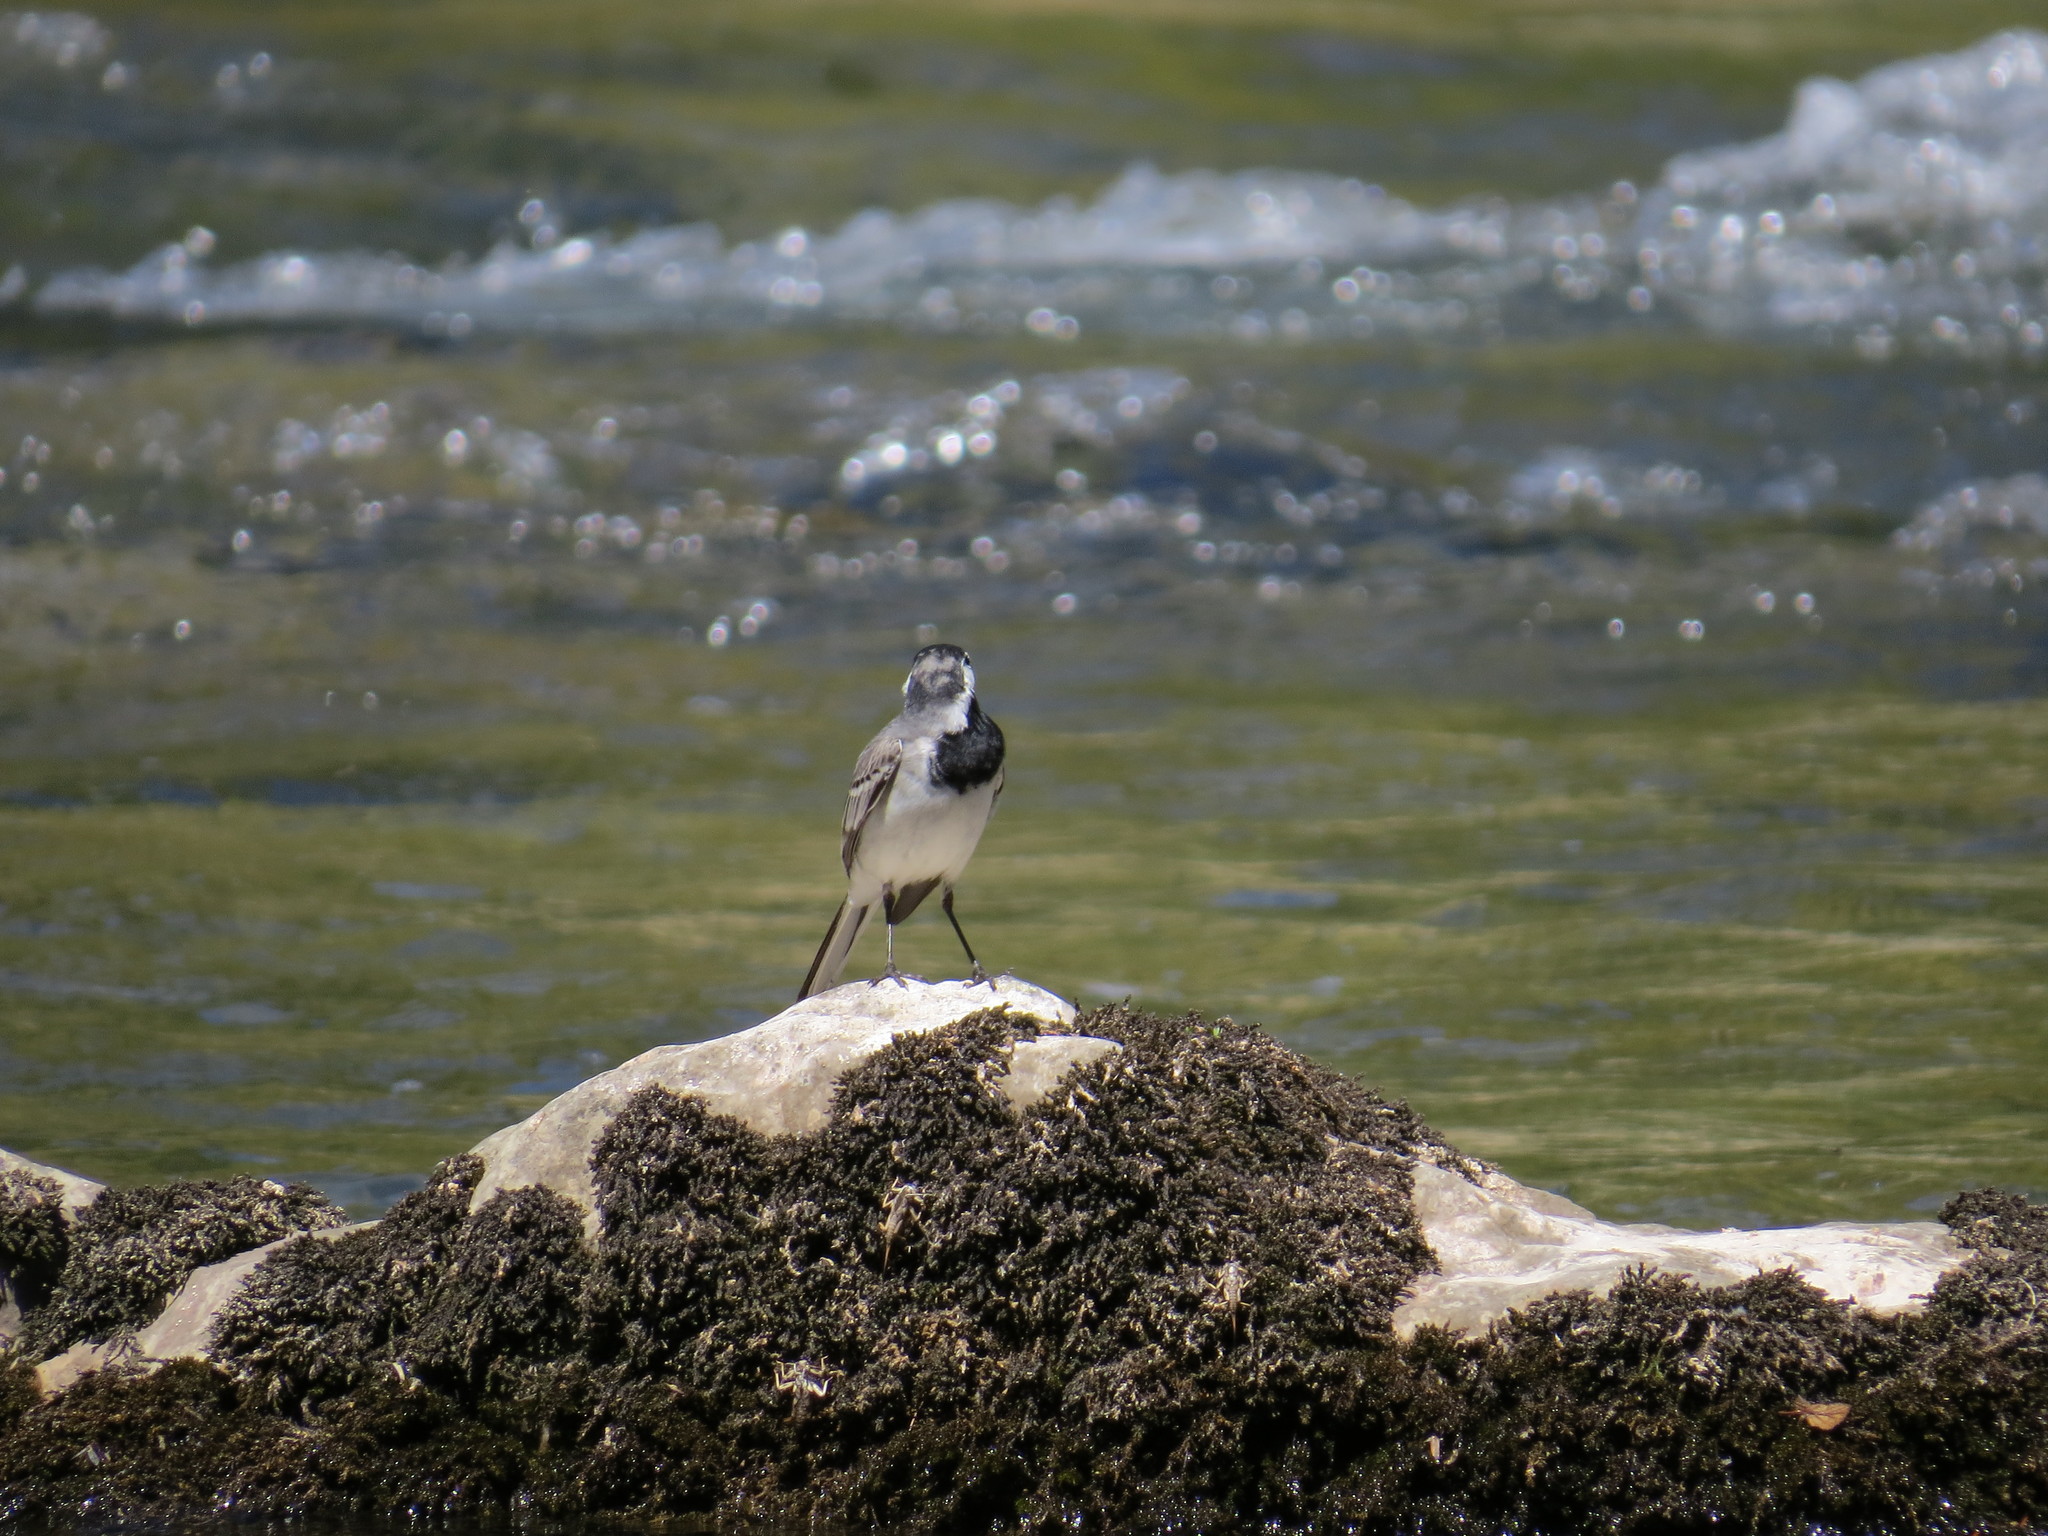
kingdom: Animalia
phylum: Chordata
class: Aves
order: Passeriformes
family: Motacillidae
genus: Motacilla
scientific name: Motacilla alba
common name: White wagtail
